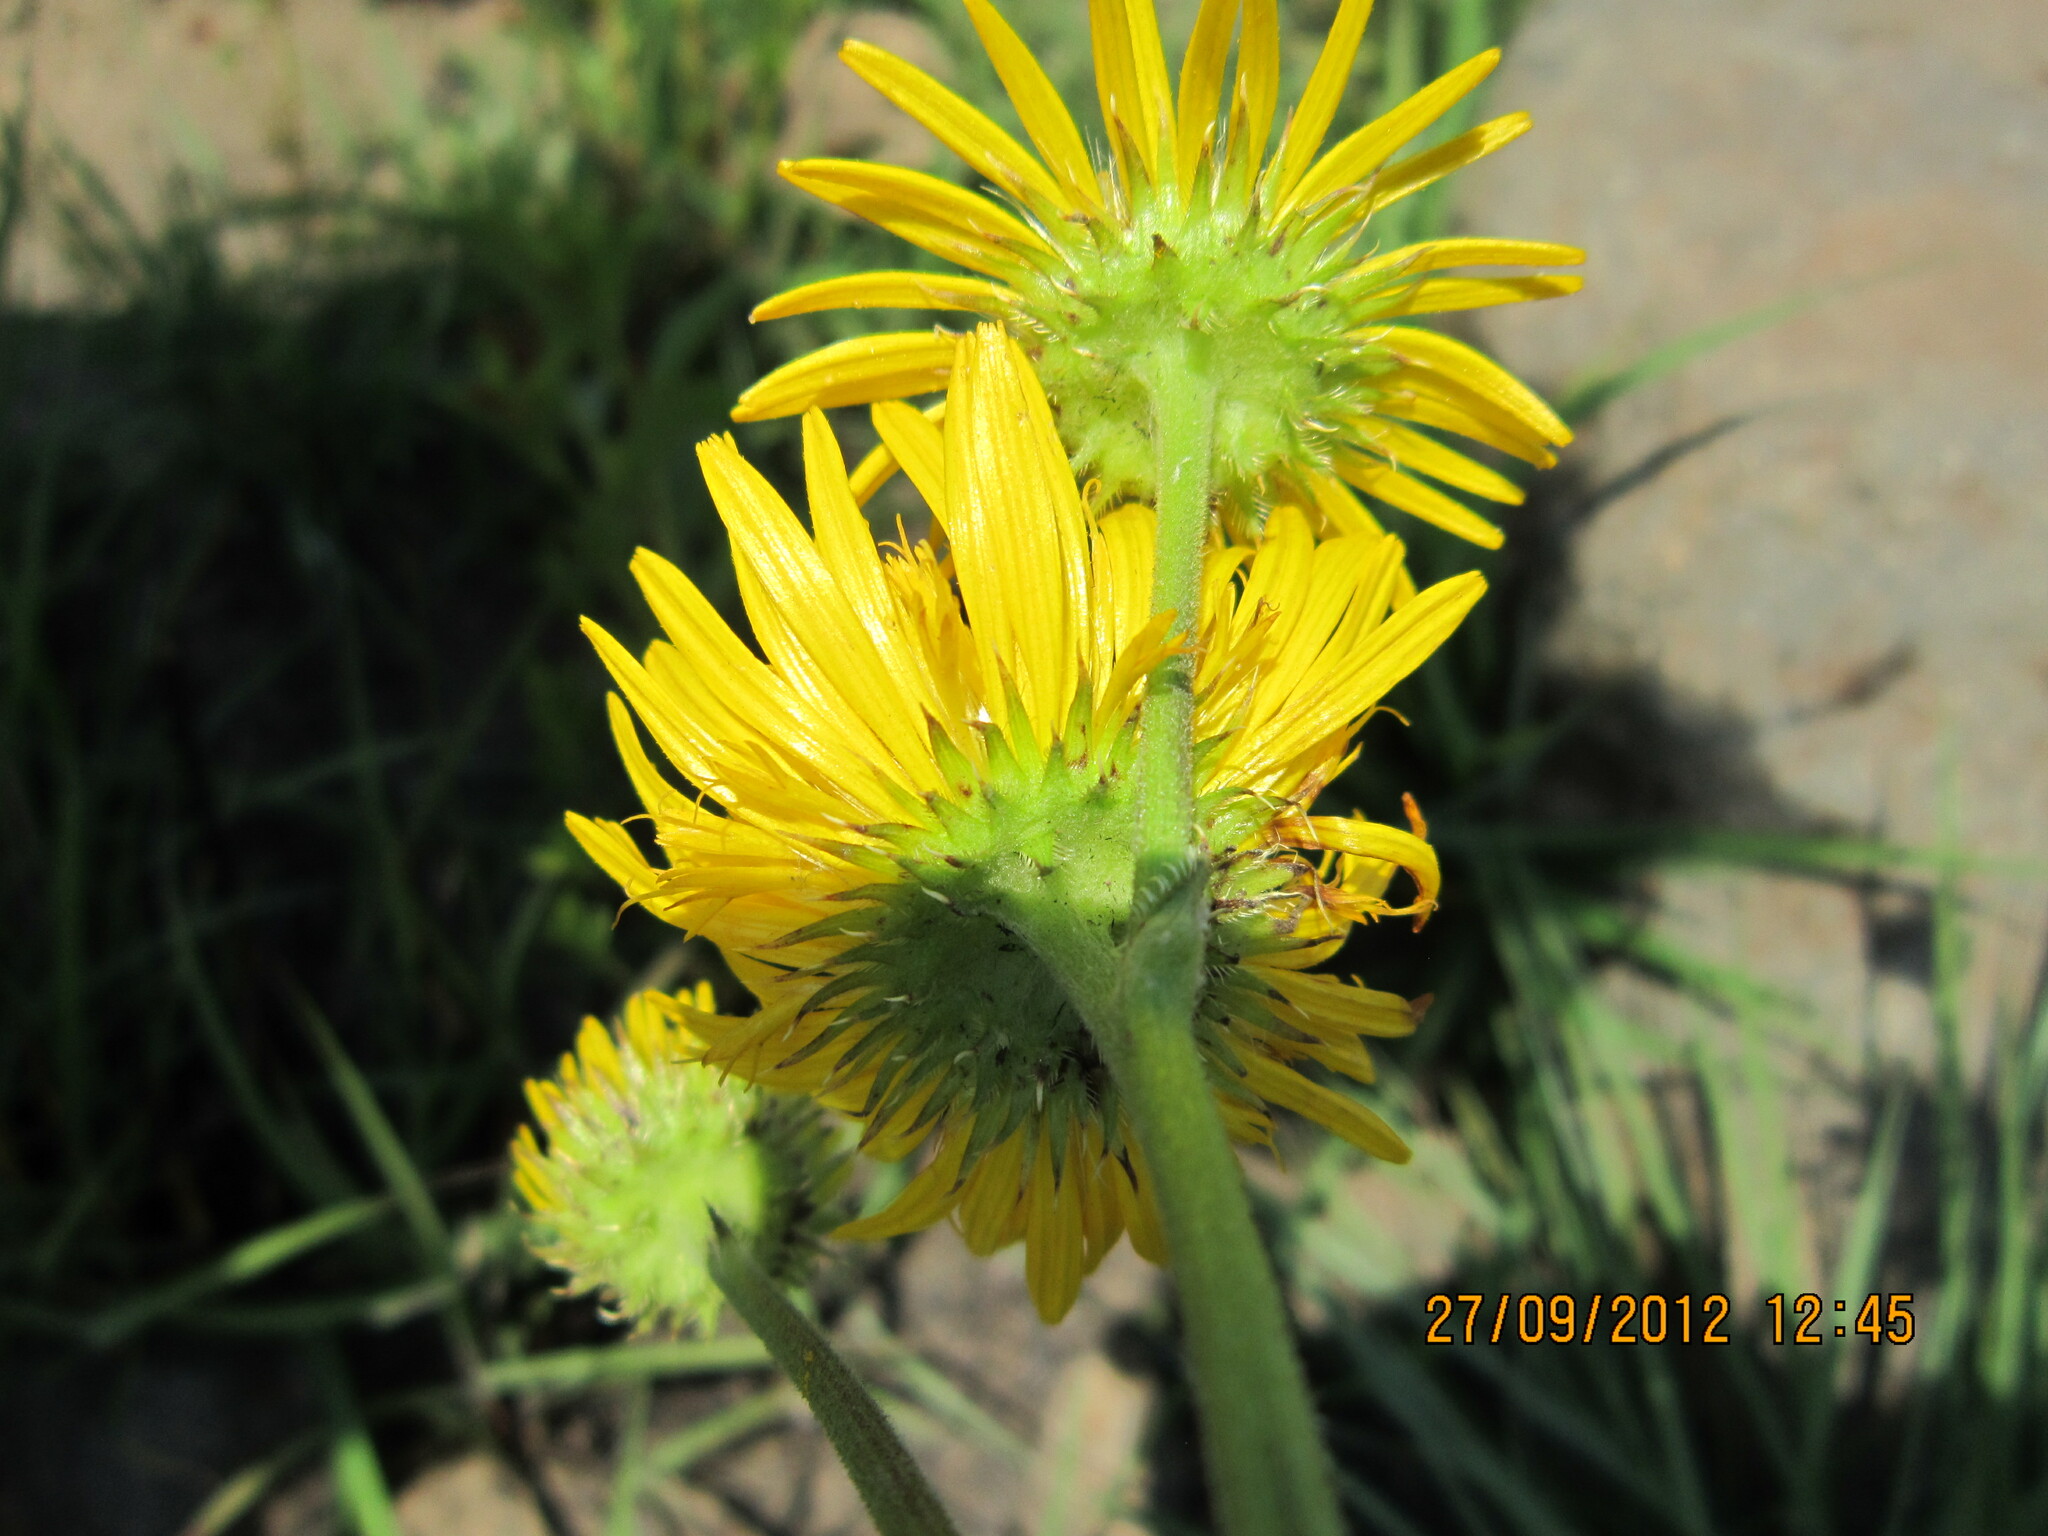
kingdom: Plantae
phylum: Tracheophyta
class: Magnoliopsida
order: Asterales
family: Asteraceae
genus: Berkheya
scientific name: Berkheya setifera
